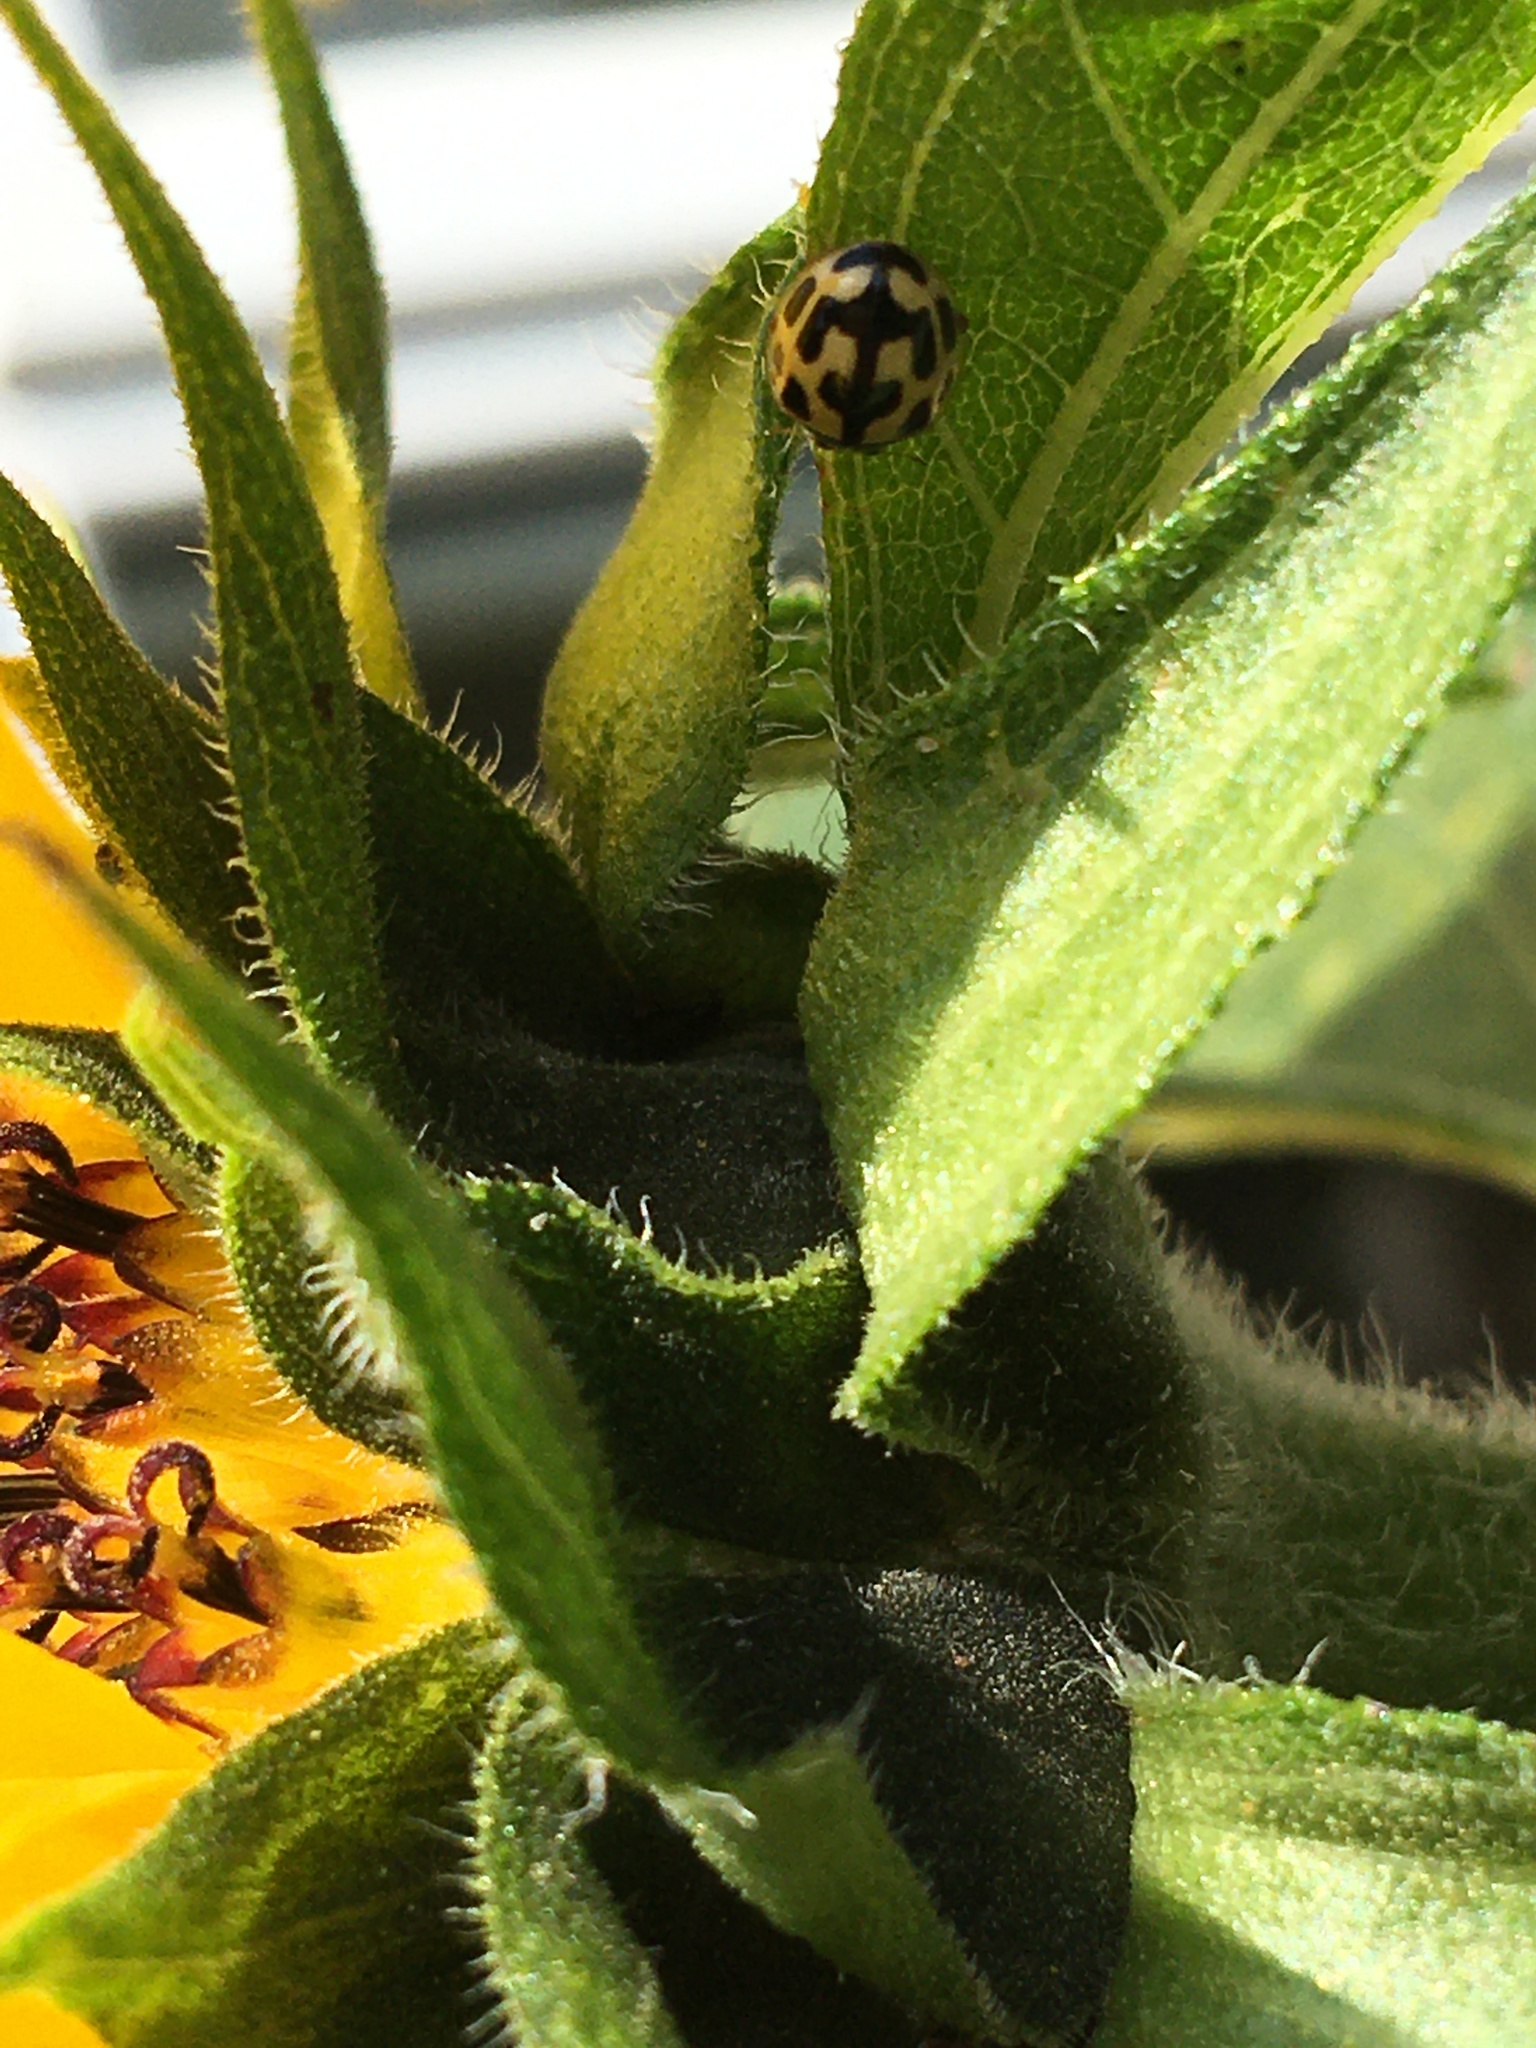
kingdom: Animalia
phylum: Arthropoda
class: Insecta
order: Coleoptera
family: Coccinellidae
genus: Propylaea
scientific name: Propylaea quatuordecimpunctata
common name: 14-spotted ladybird beetle
